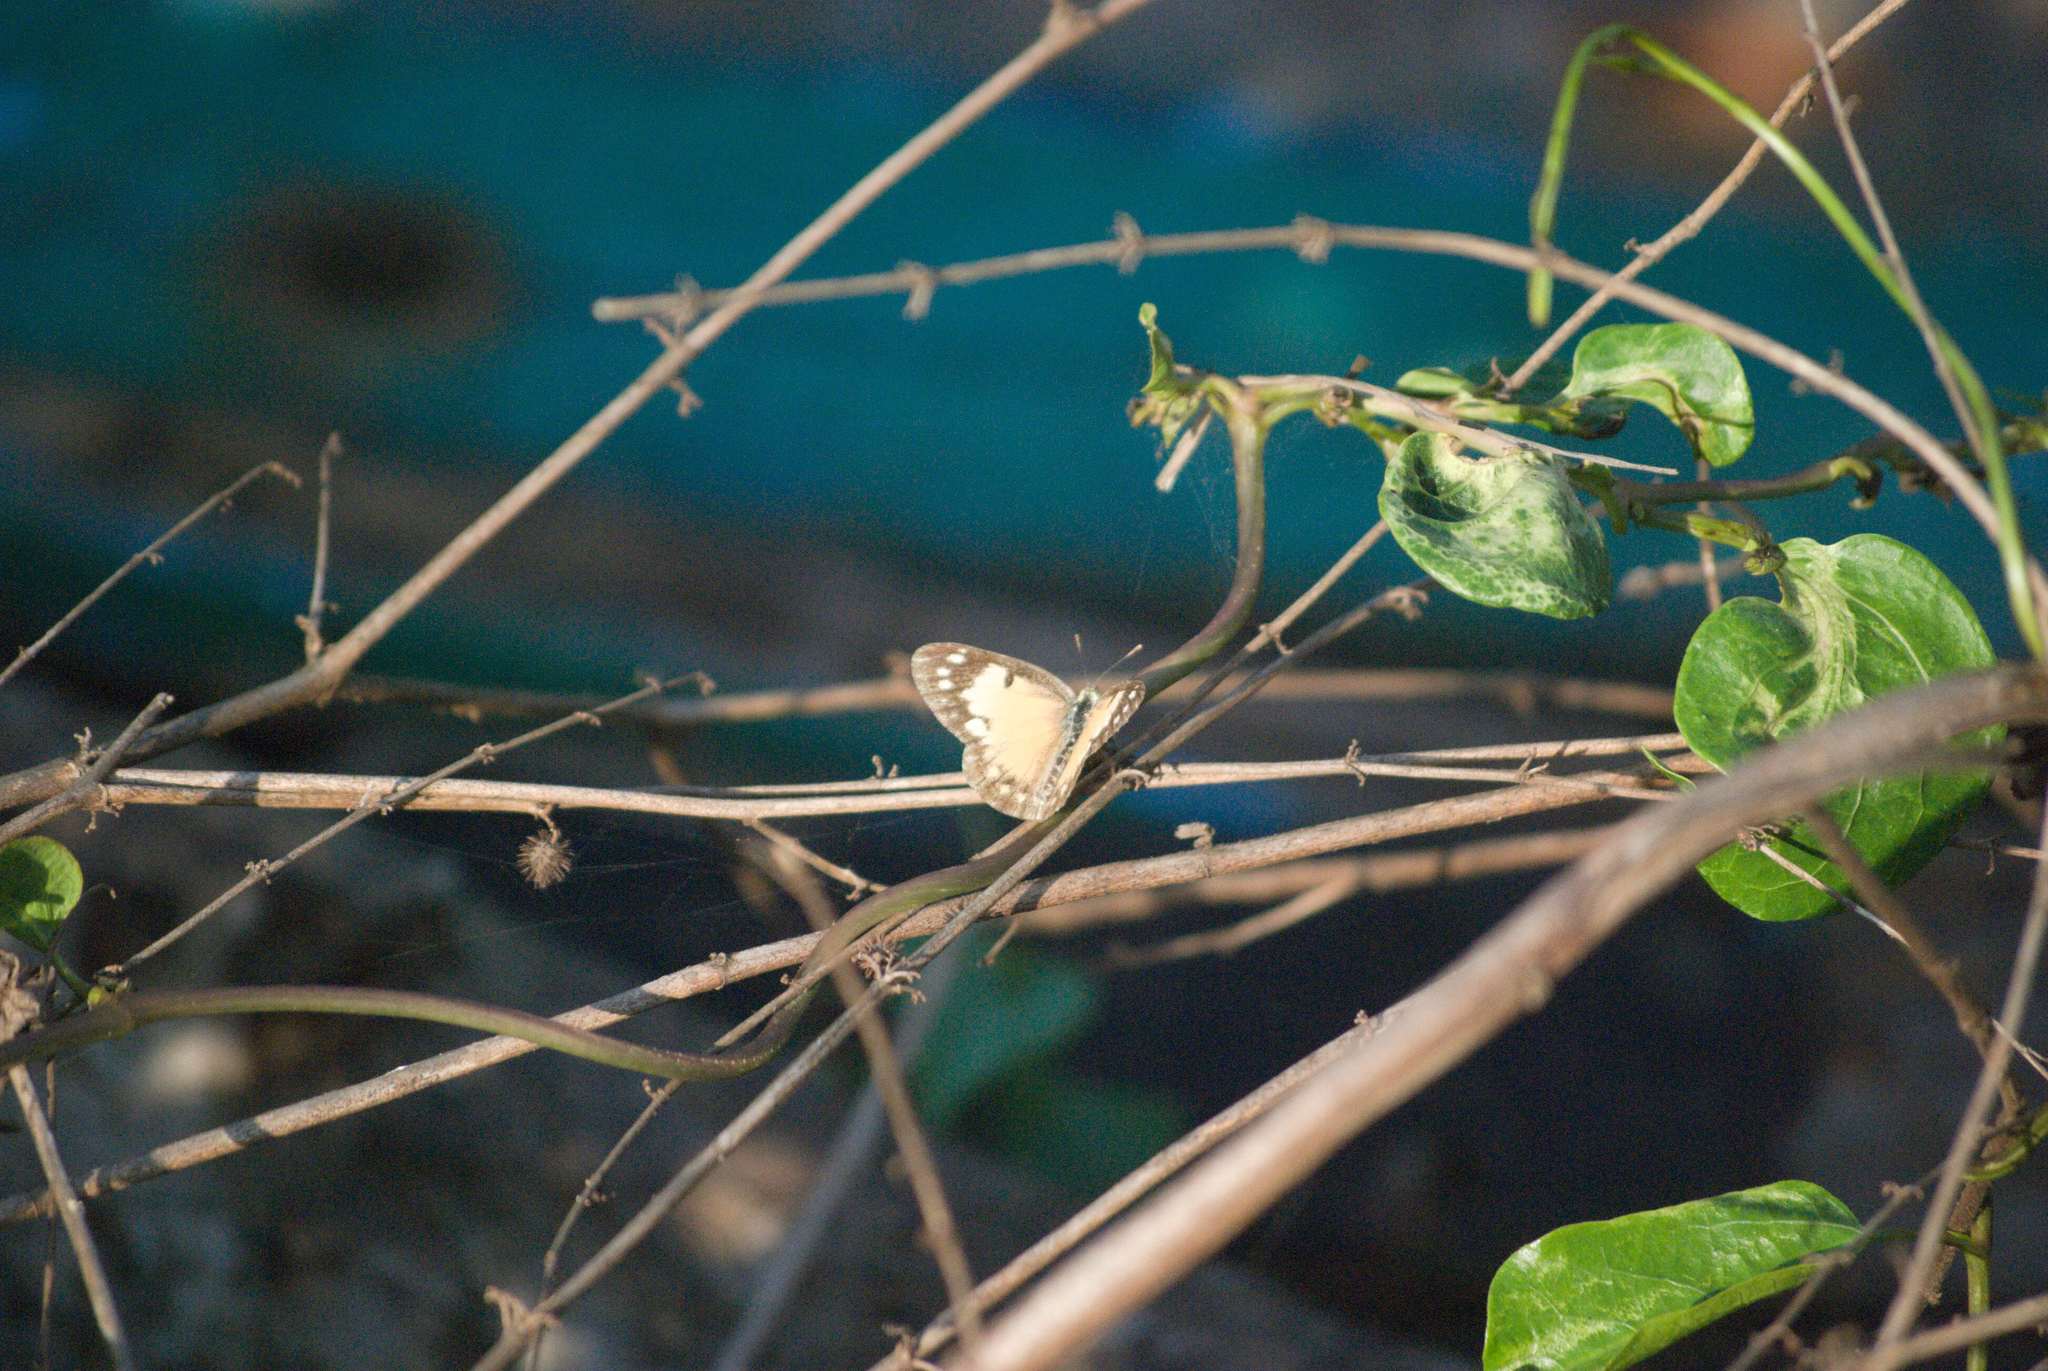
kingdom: Animalia
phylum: Arthropoda
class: Insecta
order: Lepidoptera
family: Pieridae
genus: Colotis
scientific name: Colotis amata
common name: Small salmon arab
